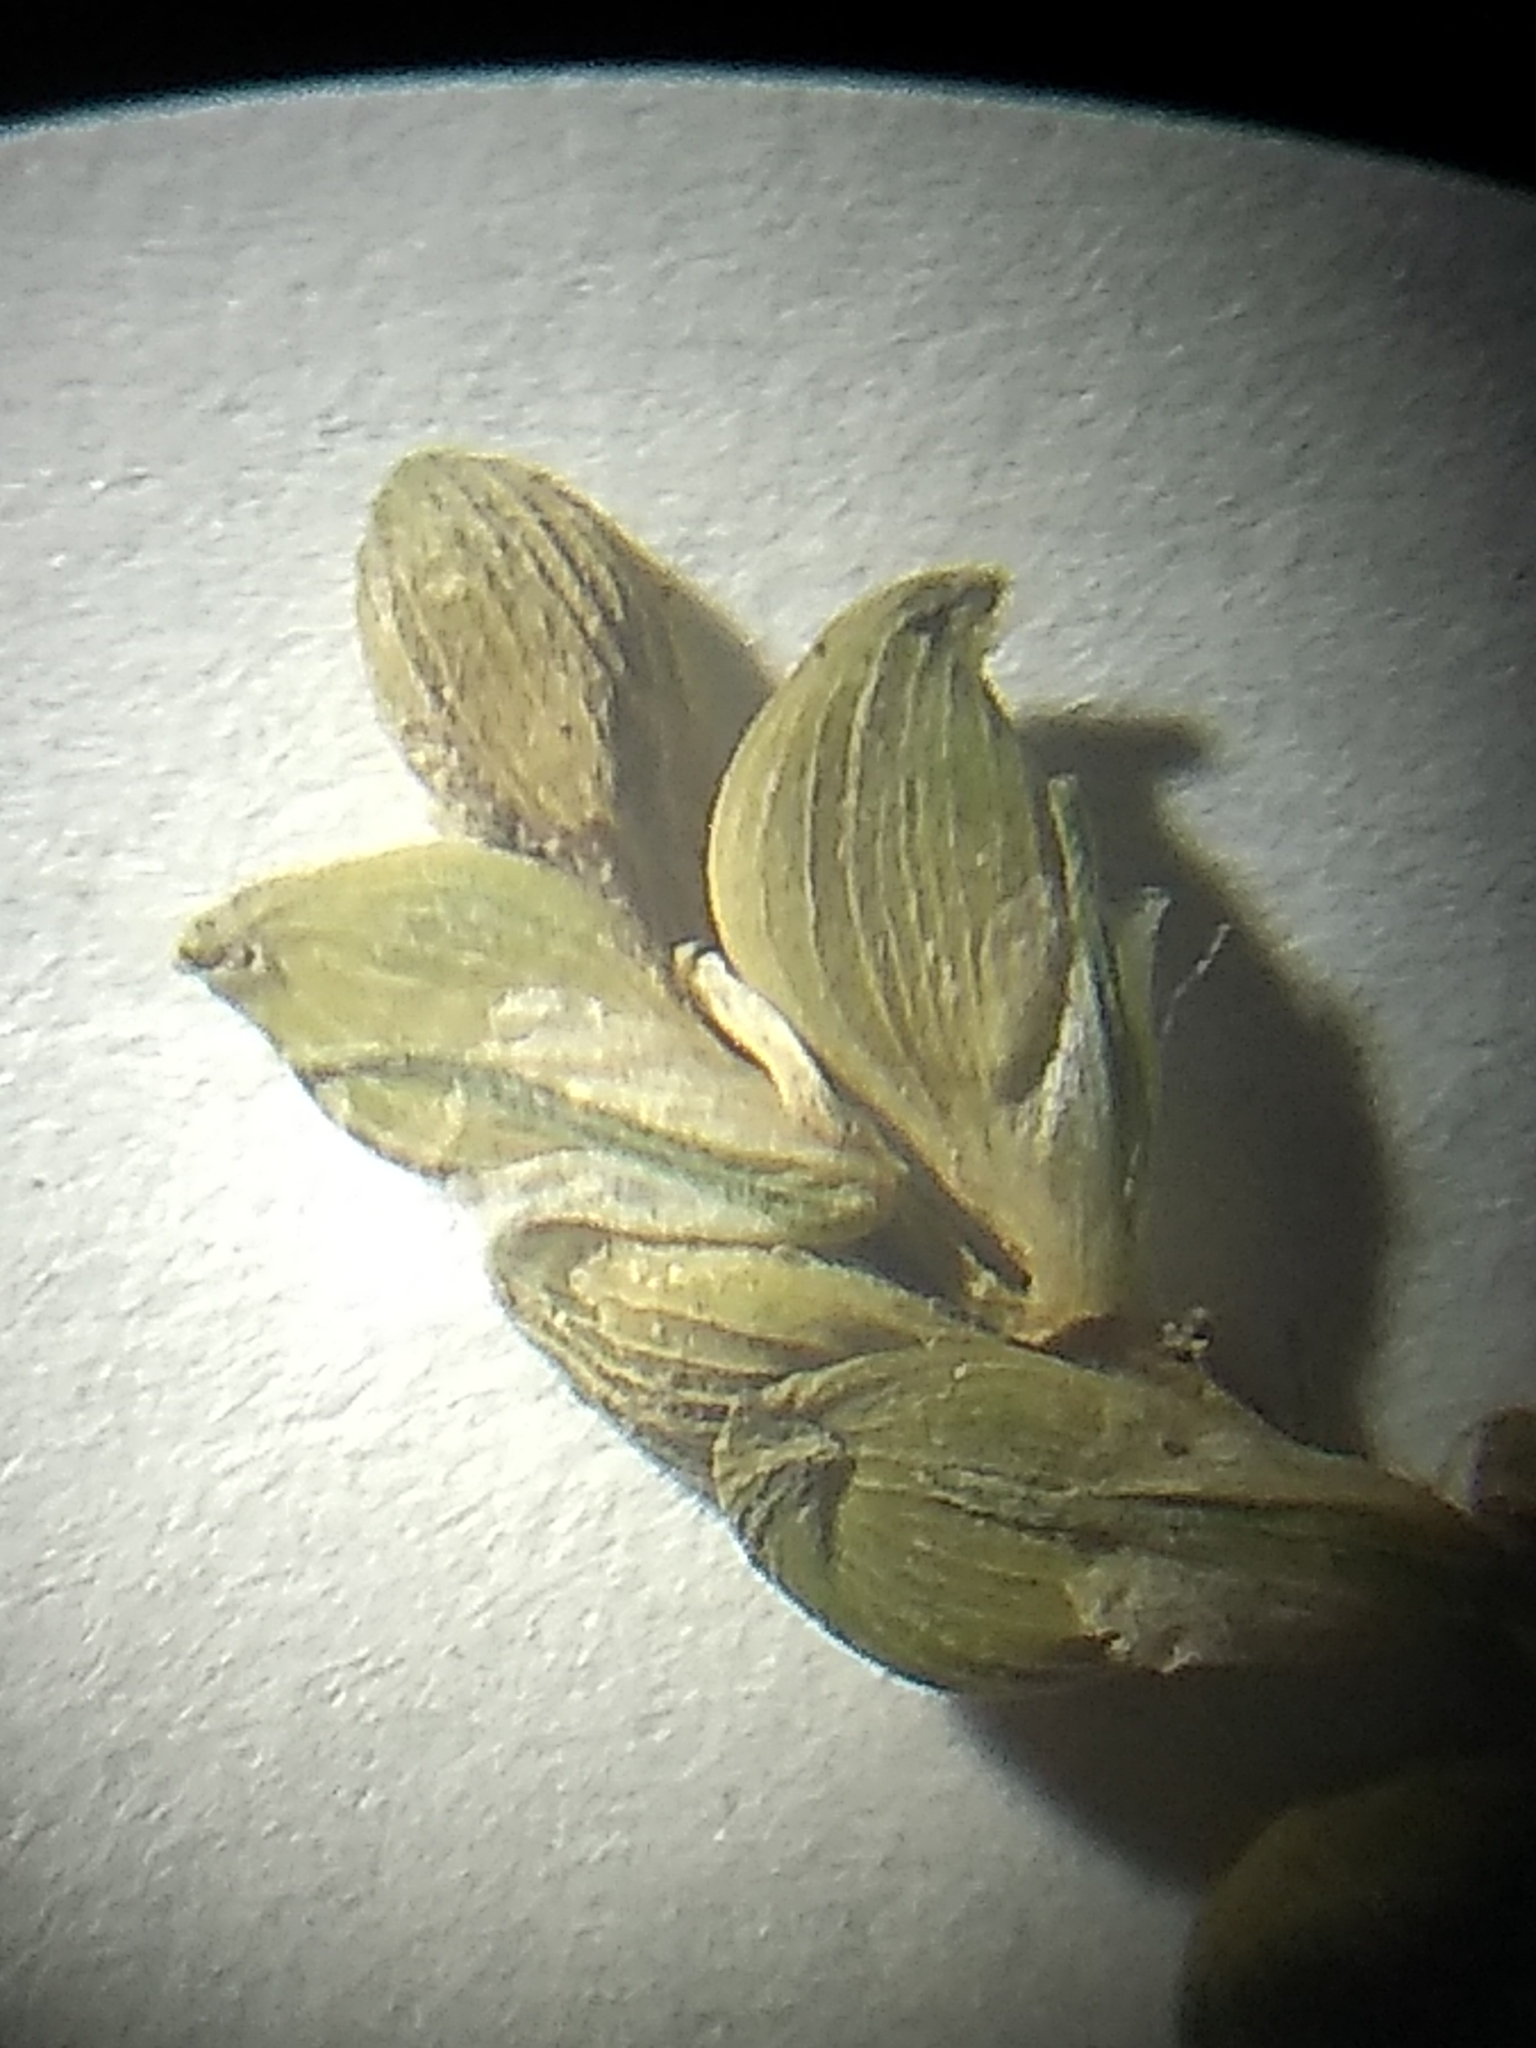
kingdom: Plantae
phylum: Tracheophyta
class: Liliopsida
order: Poales
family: Cyperaceae
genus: Carex
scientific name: Carex blanda
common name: Bland sedge
